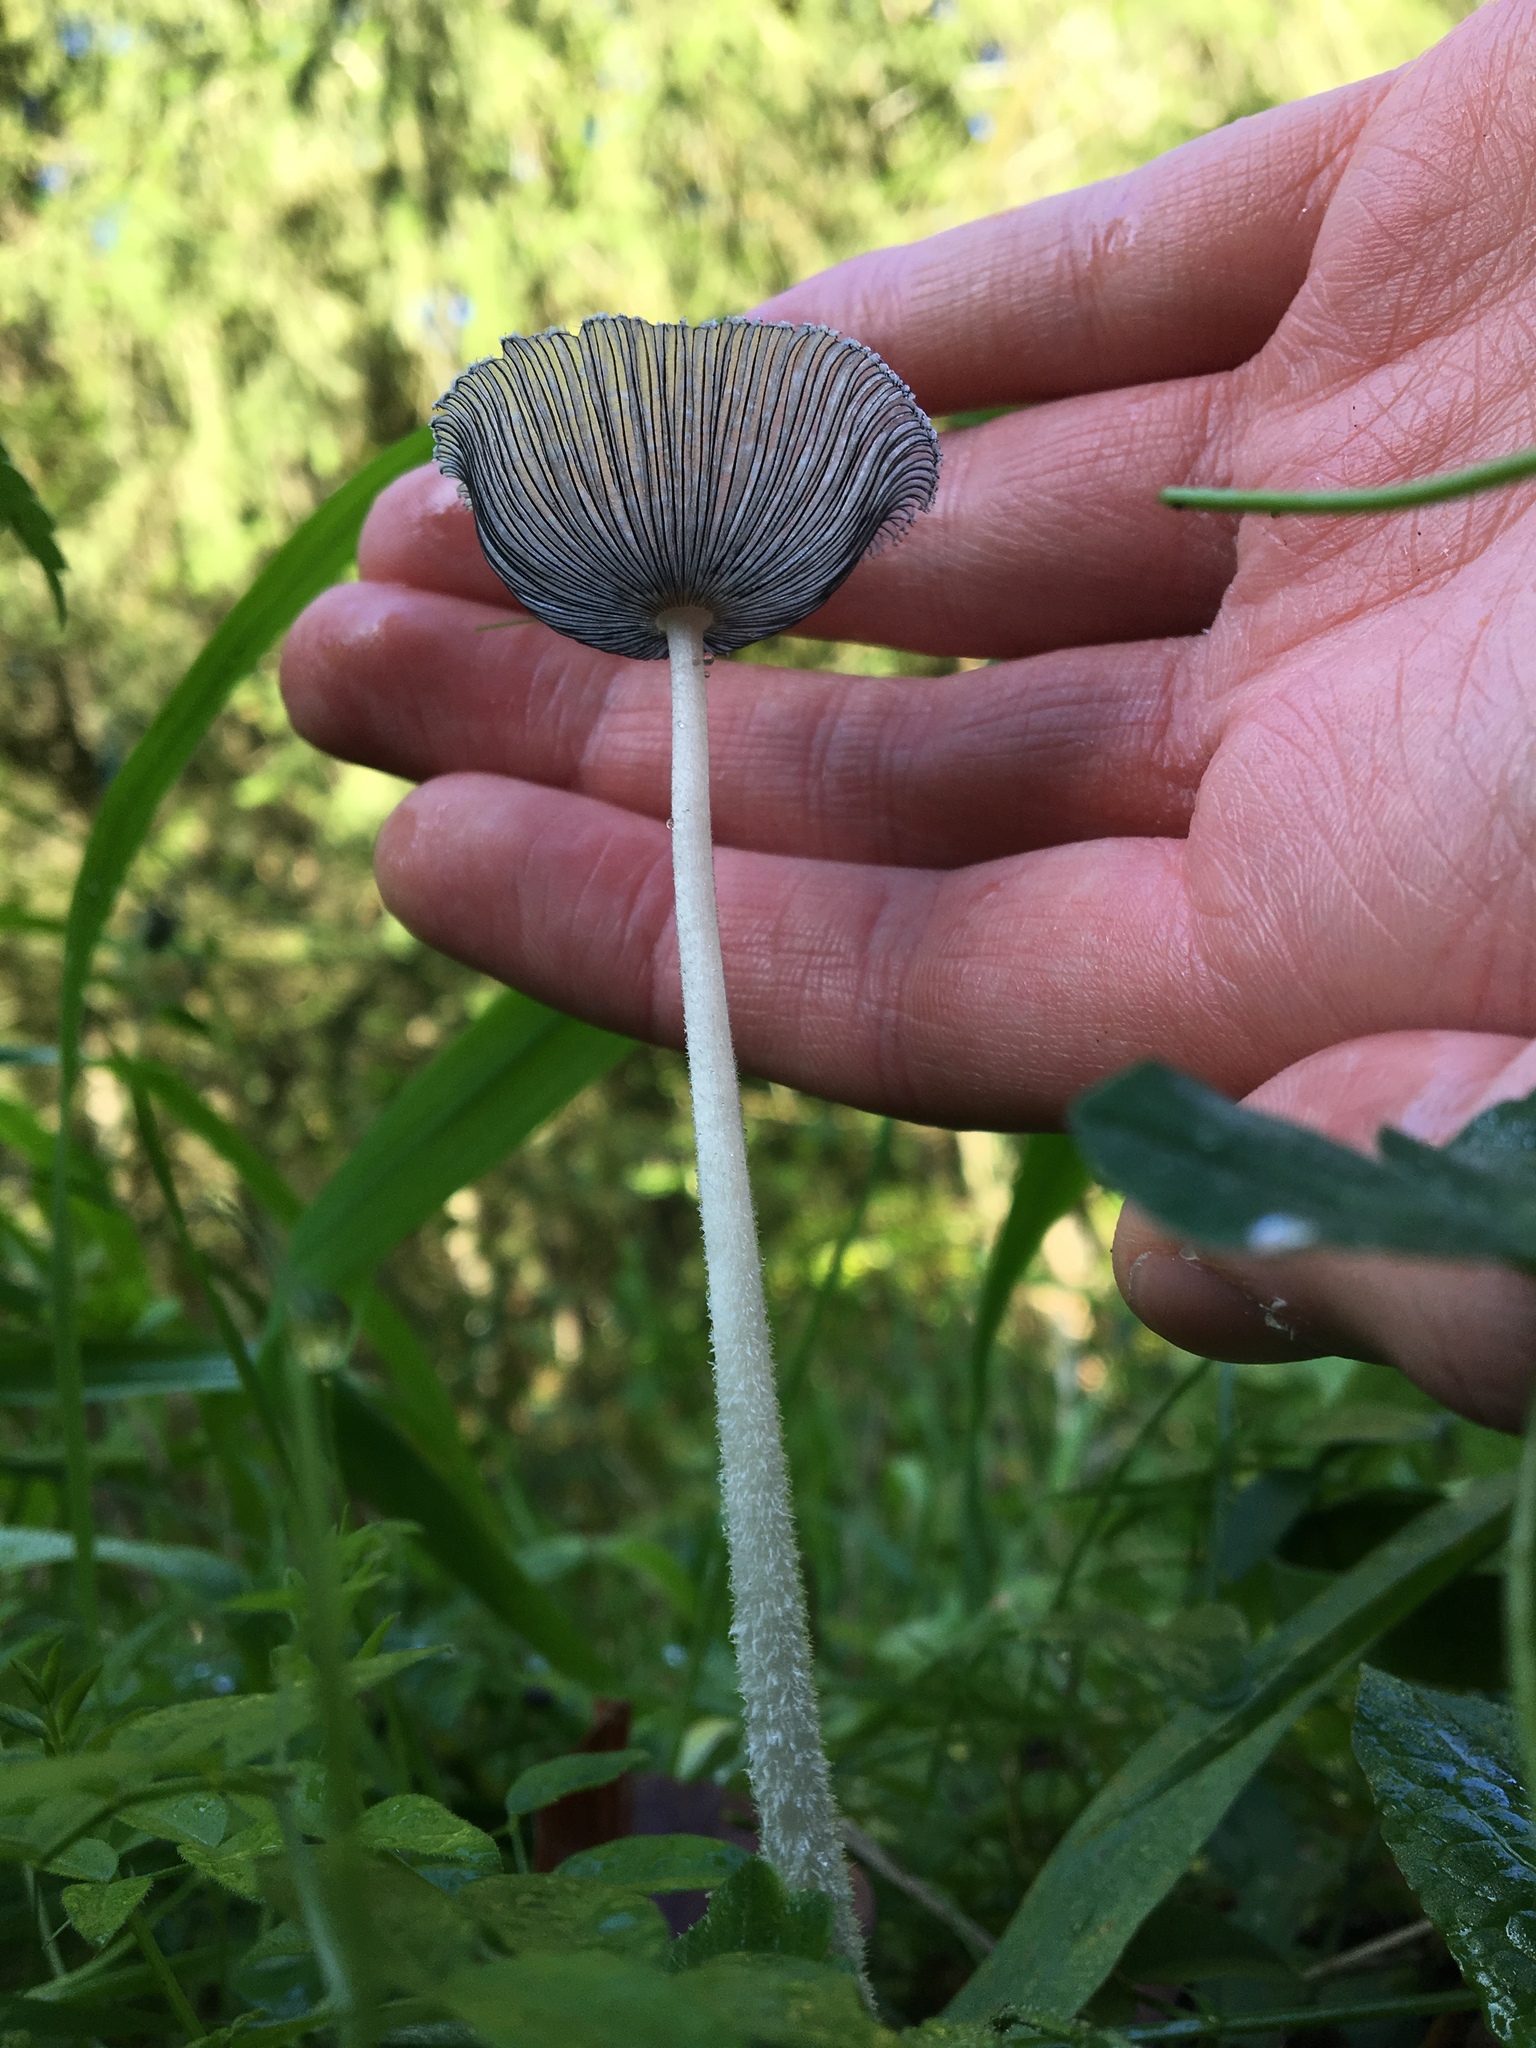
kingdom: Fungi
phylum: Basidiomycota
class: Agaricomycetes
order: Agaricales
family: Psathyrellaceae
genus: Coprinopsis
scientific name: Coprinopsis lagopus
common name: Hare'sfoot inkcap
